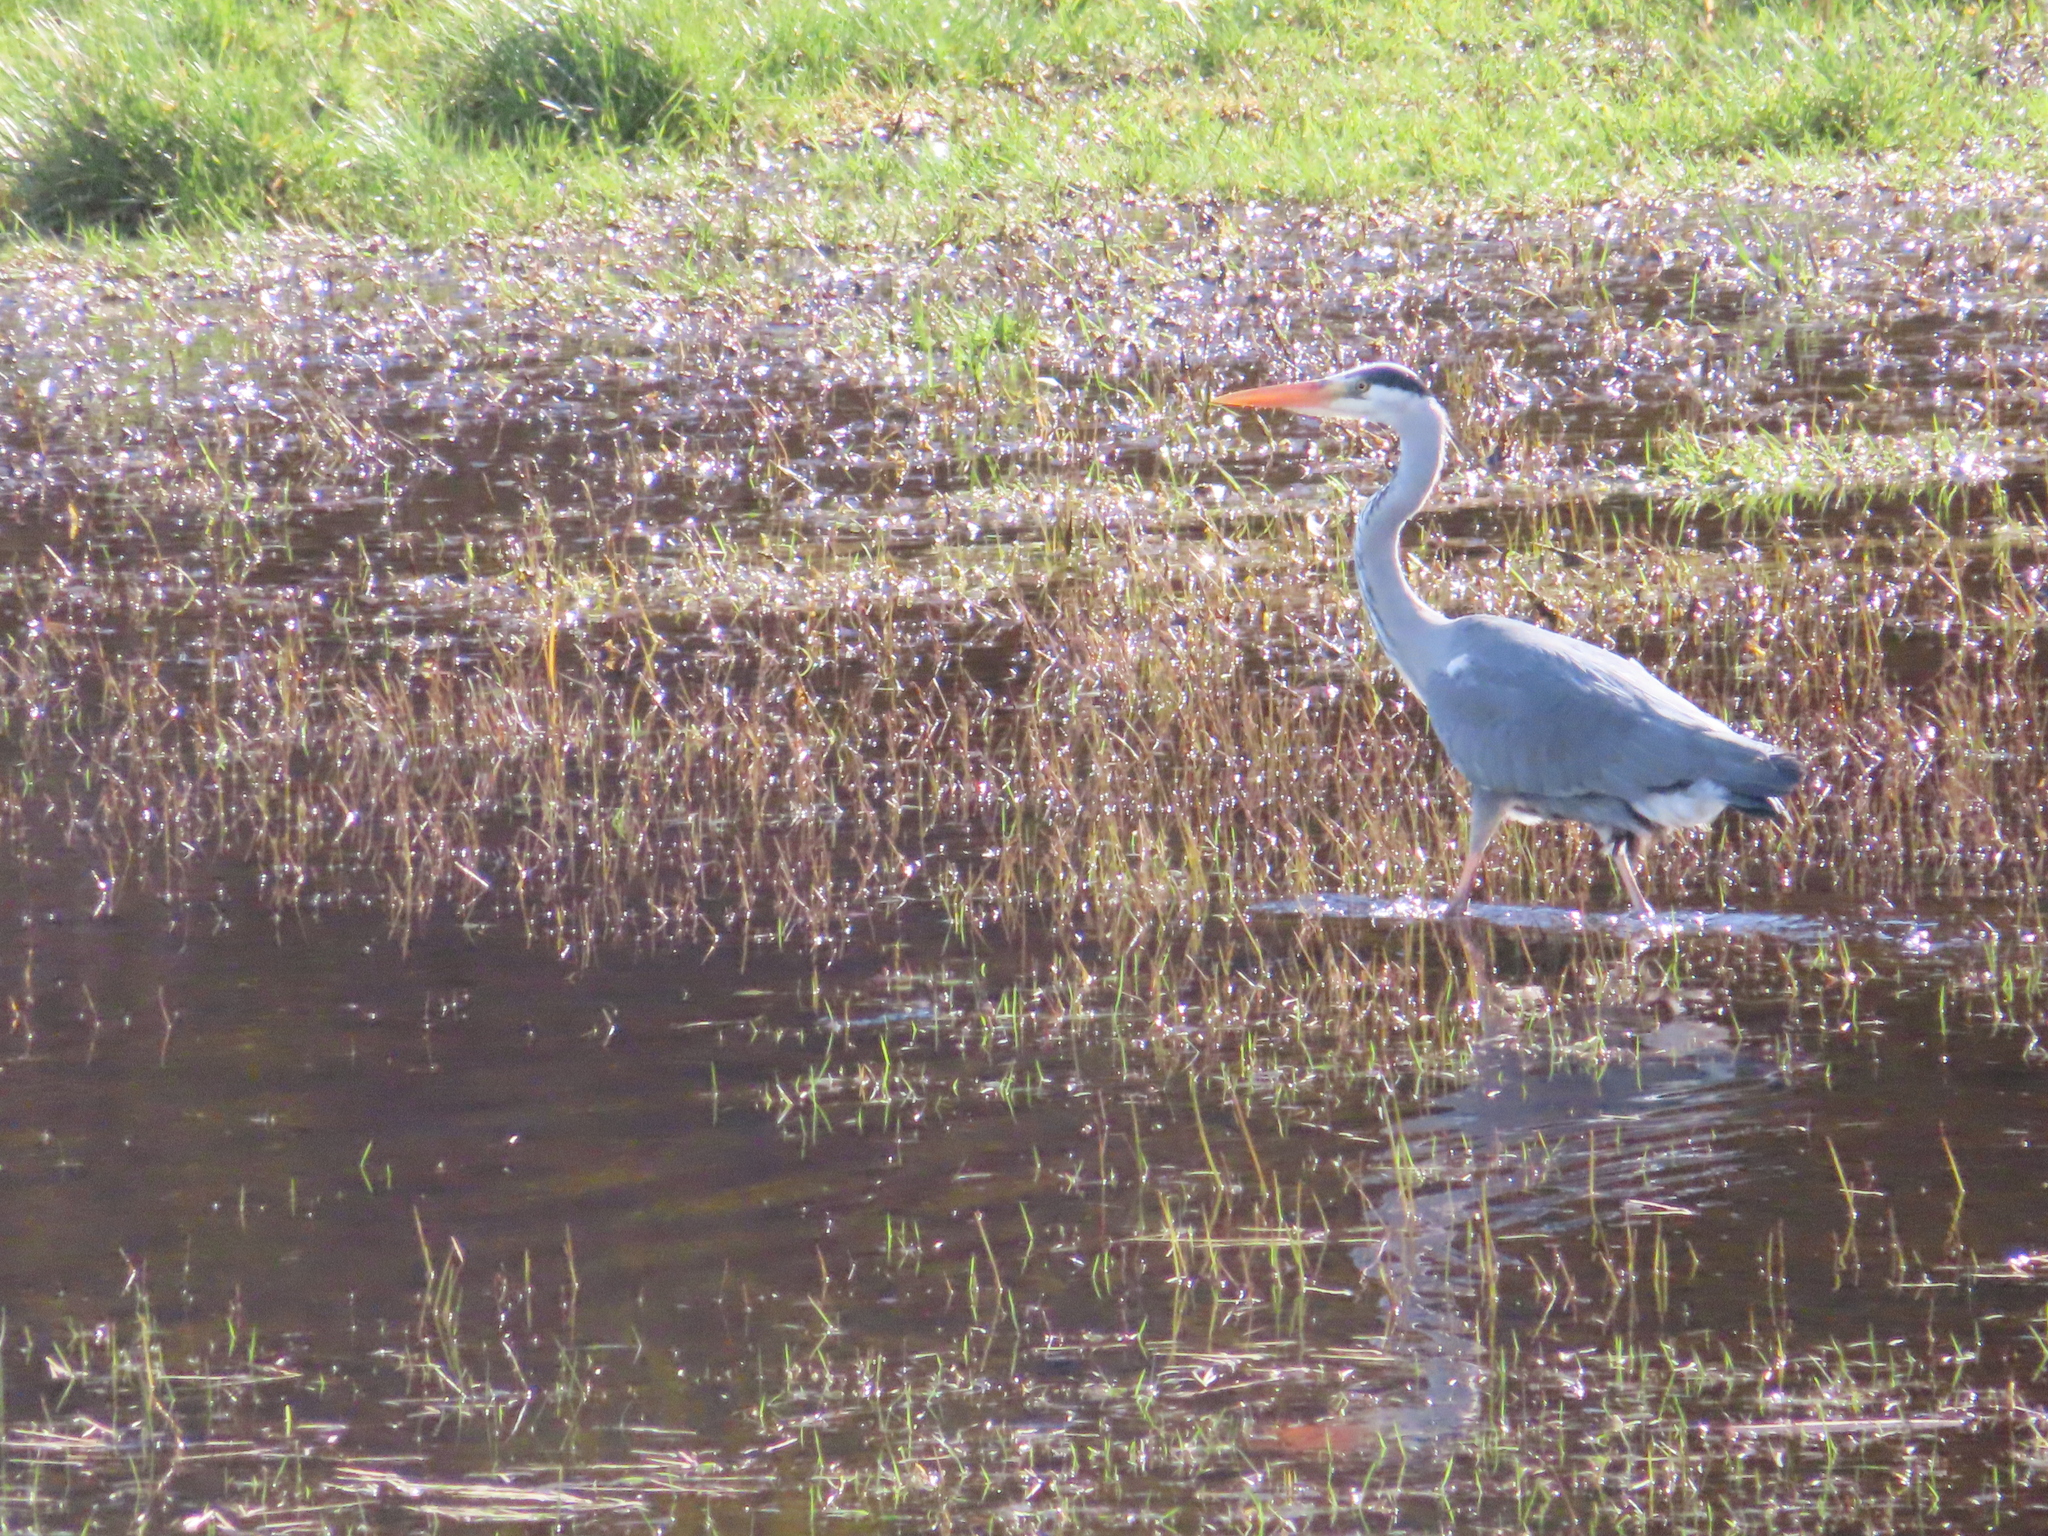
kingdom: Animalia
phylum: Chordata
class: Aves
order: Pelecaniformes
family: Ardeidae
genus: Ardea
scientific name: Ardea cinerea
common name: Grey heron
